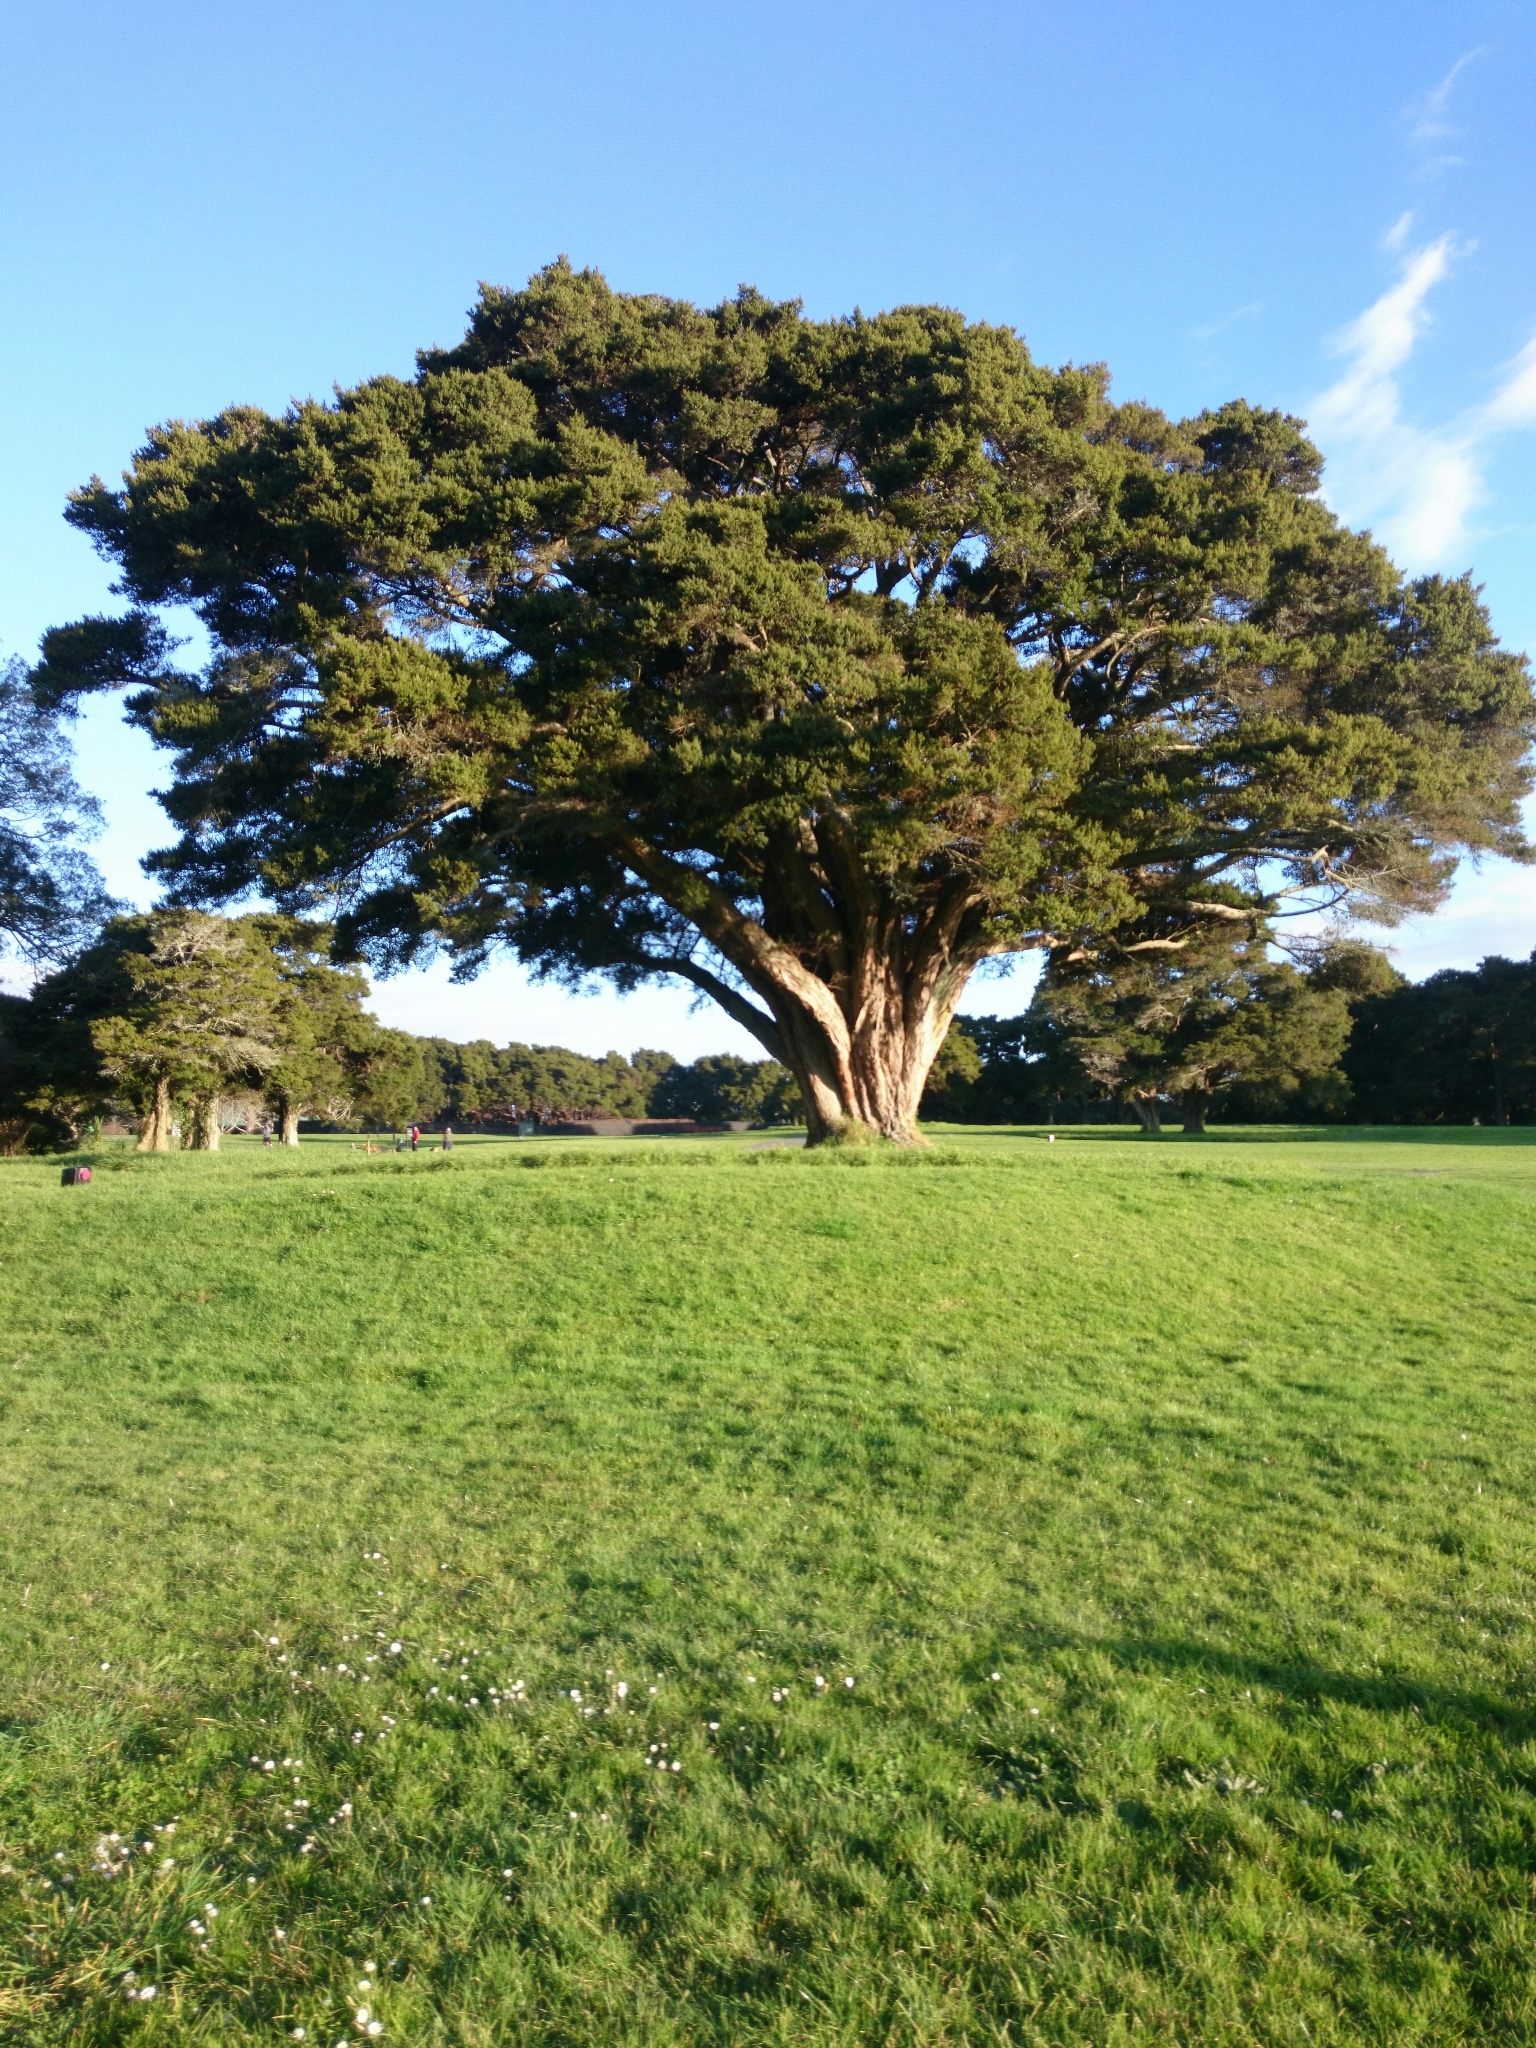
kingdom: Plantae
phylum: Tracheophyta
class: Pinopsida
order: Pinales
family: Podocarpaceae
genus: Podocarpus
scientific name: Podocarpus totara
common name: Totara
